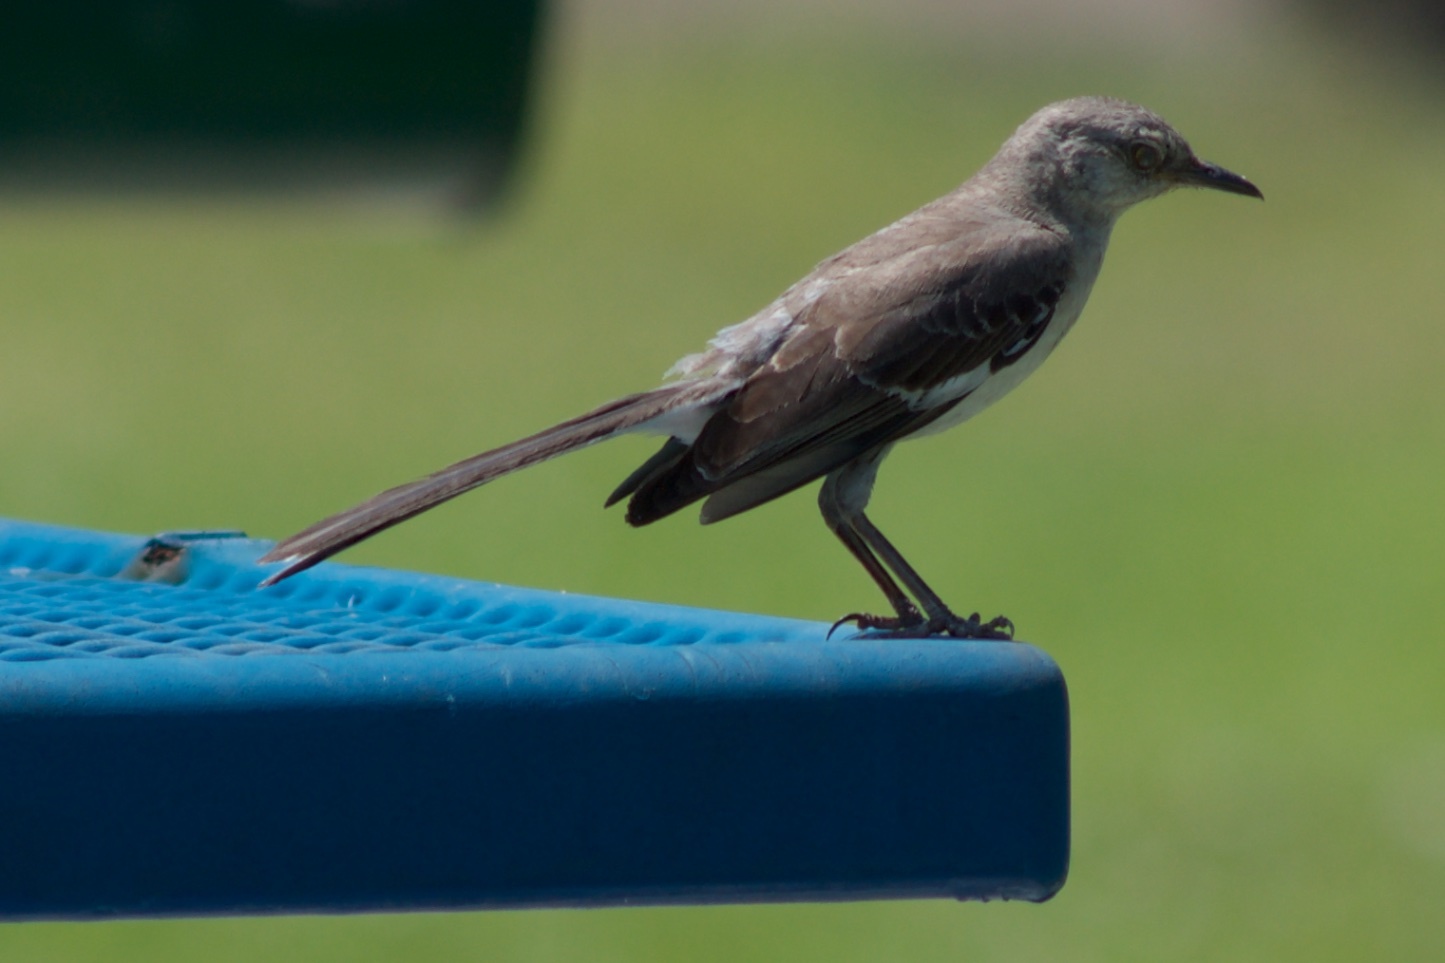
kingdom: Animalia
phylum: Chordata
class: Aves
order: Passeriformes
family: Mimidae
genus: Mimus
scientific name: Mimus polyglottos
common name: Northern mockingbird
